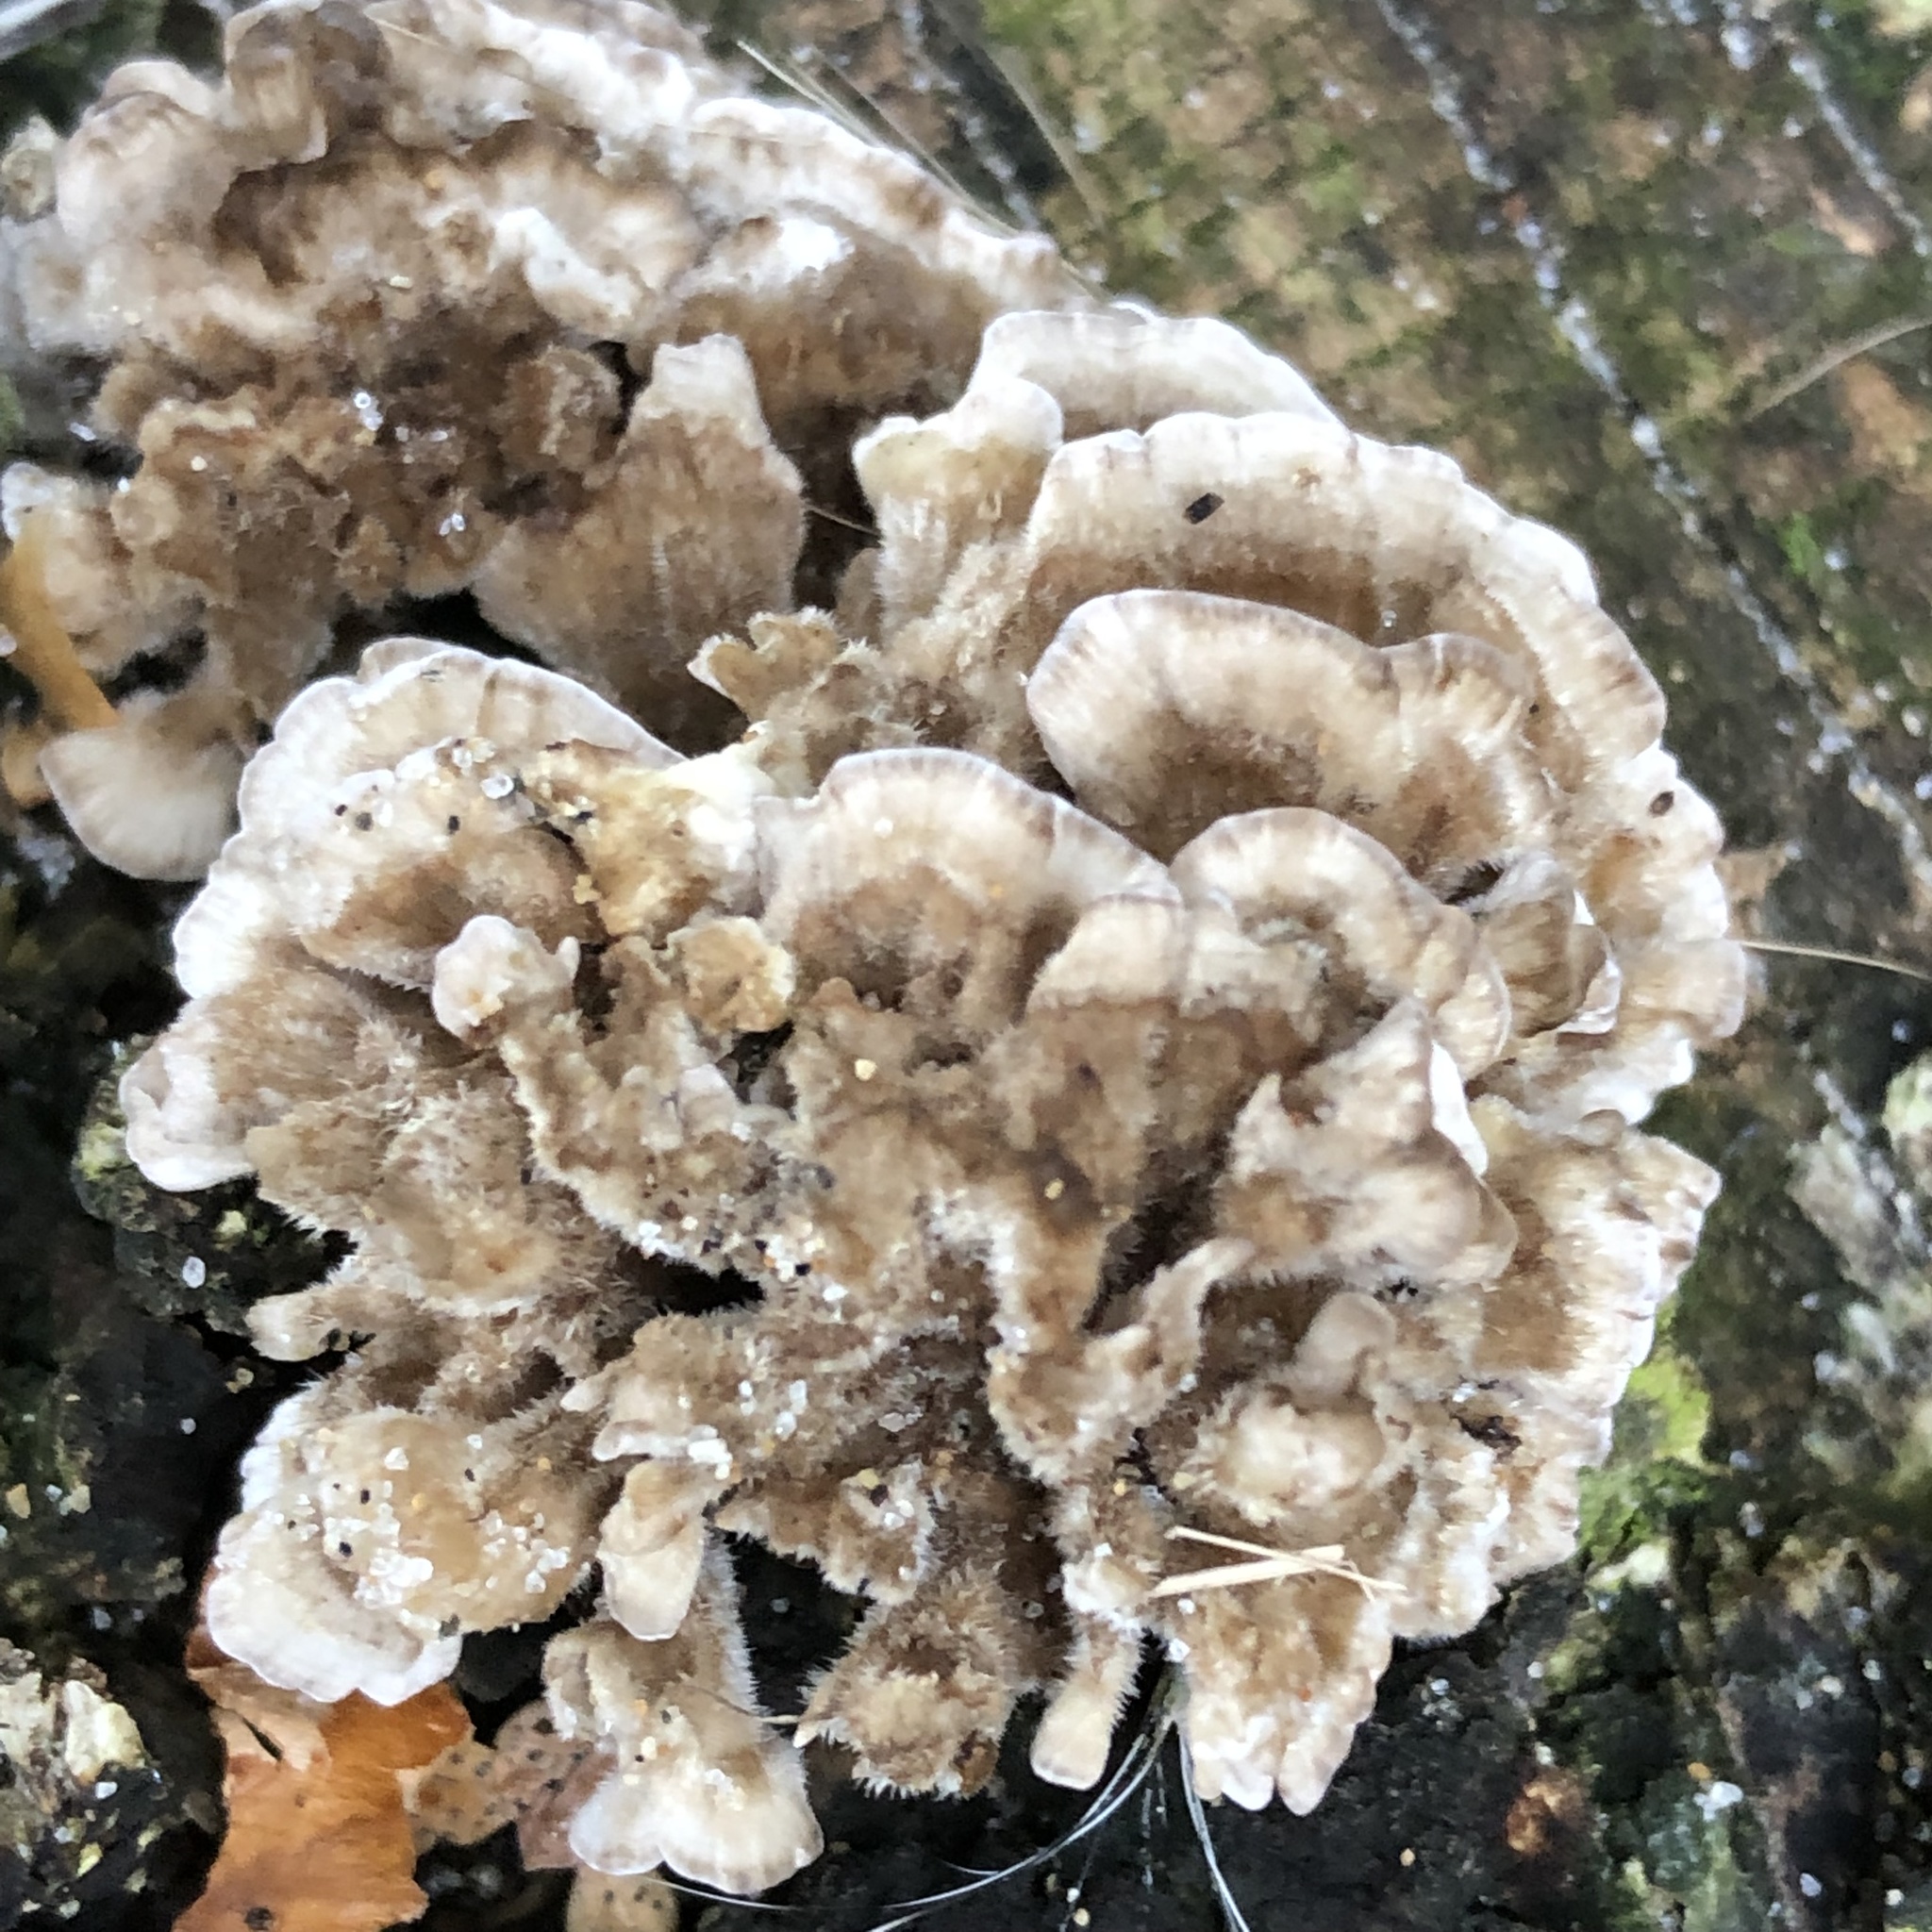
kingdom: Fungi
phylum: Basidiomycota
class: Agaricomycetes
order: Polyporales
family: Polyporaceae
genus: Trametes
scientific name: Trametes versicolor
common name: Turkeytail
